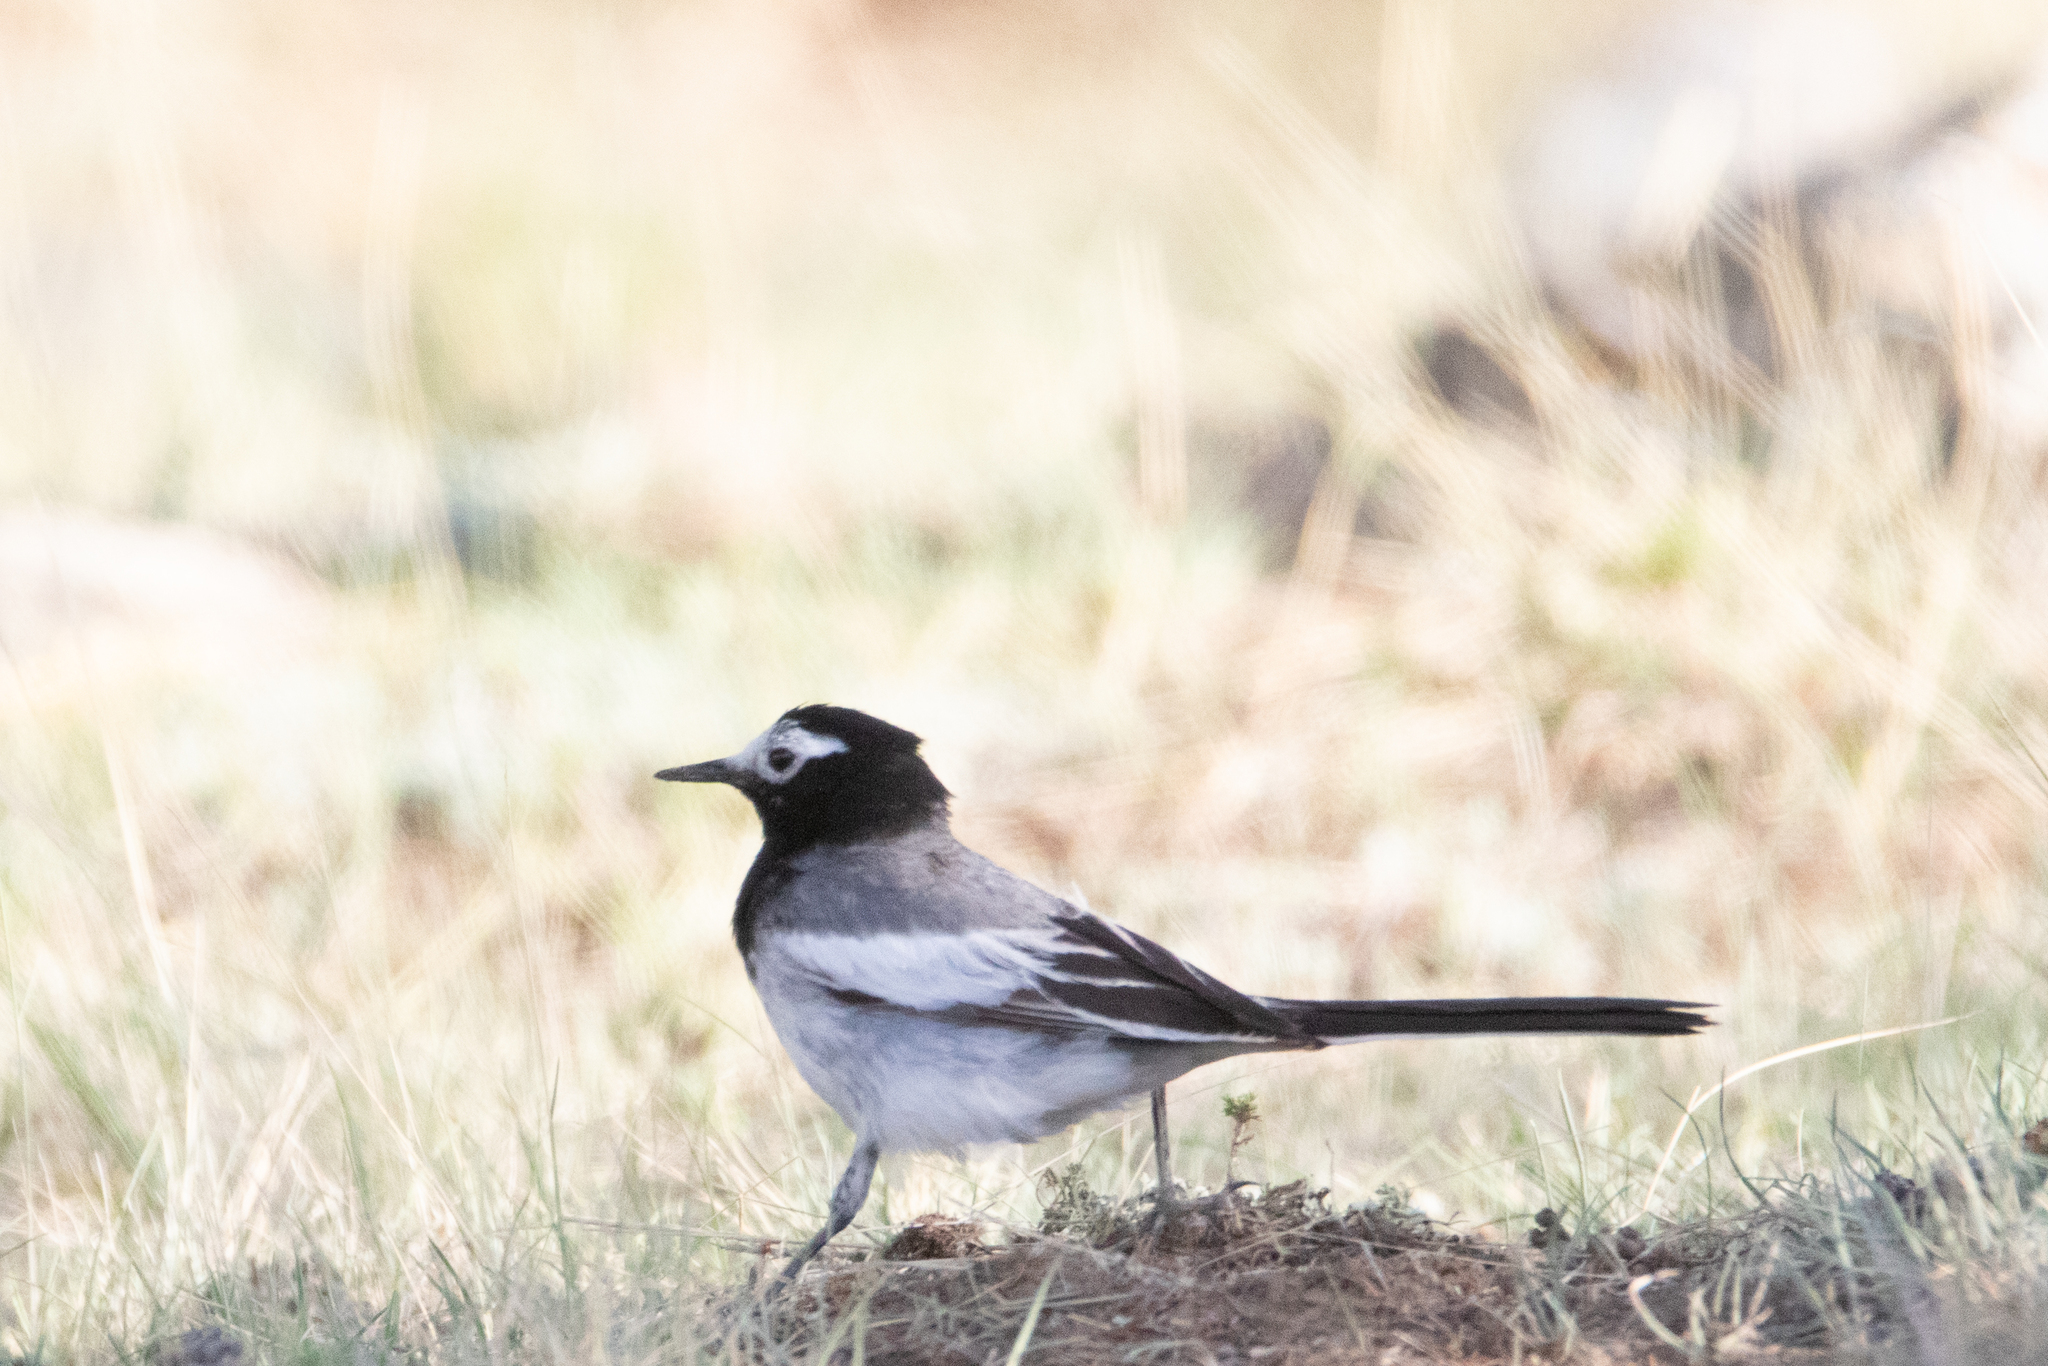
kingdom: Animalia
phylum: Chordata
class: Aves
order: Passeriformes
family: Motacillidae
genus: Motacilla
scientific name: Motacilla alba
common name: White wagtail
